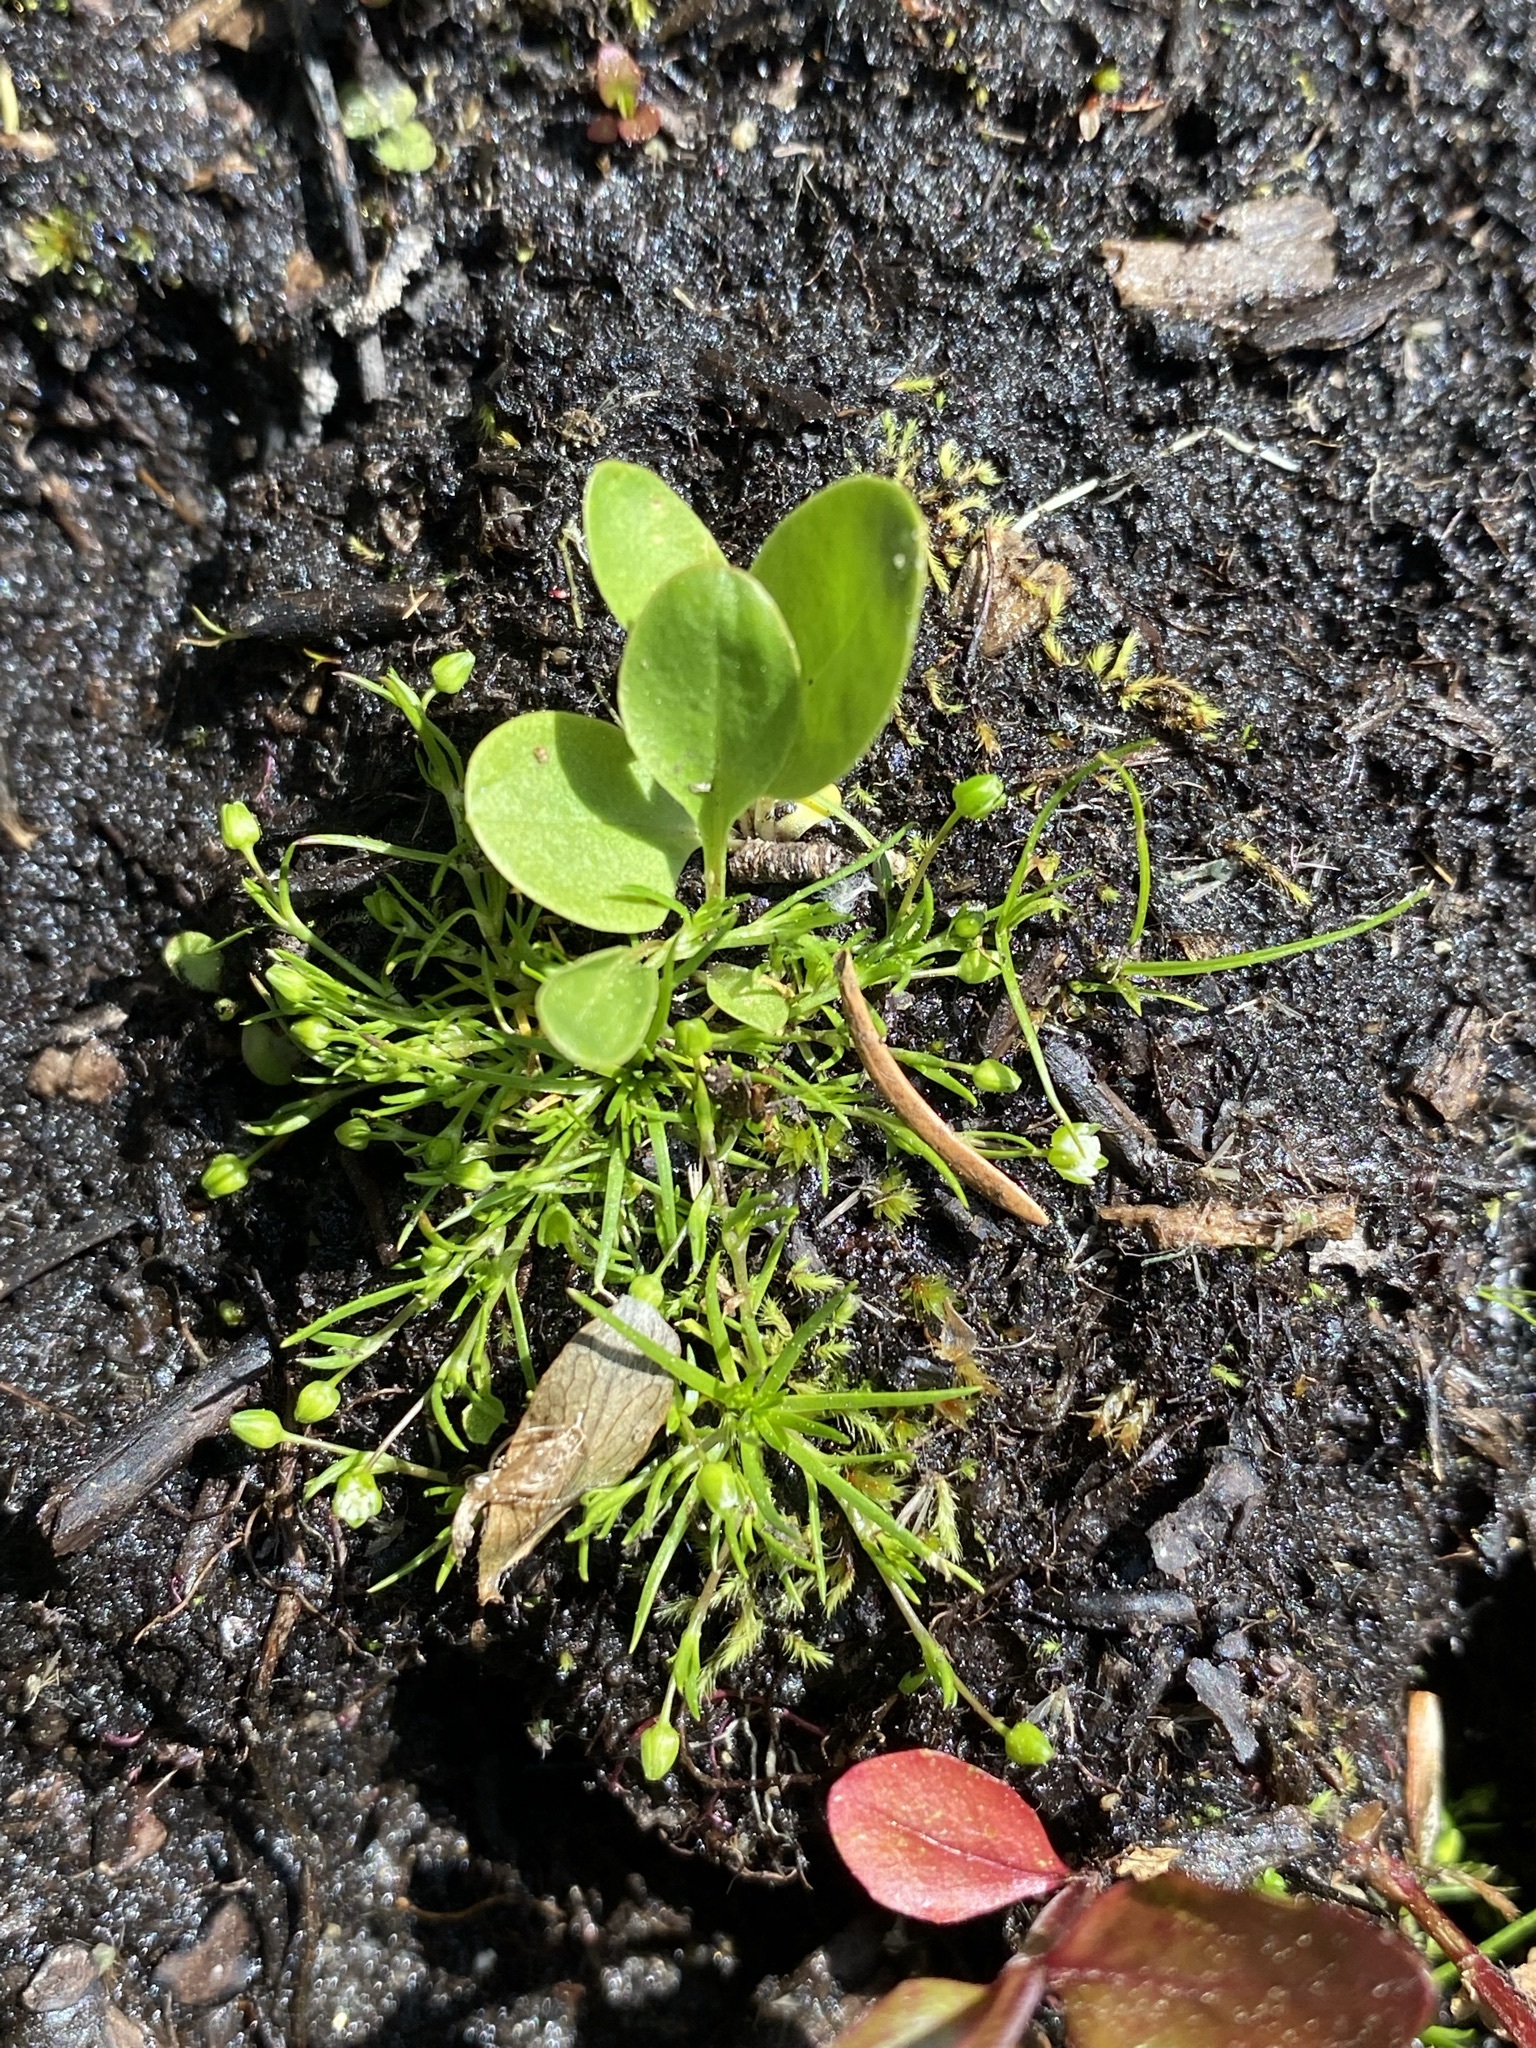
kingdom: Plantae
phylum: Tracheophyta
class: Magnoliopsida
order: Caryophyllales
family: Caryophyllaceae
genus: Sagina
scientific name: Sagina saginoides
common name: Alpine pearlwort
